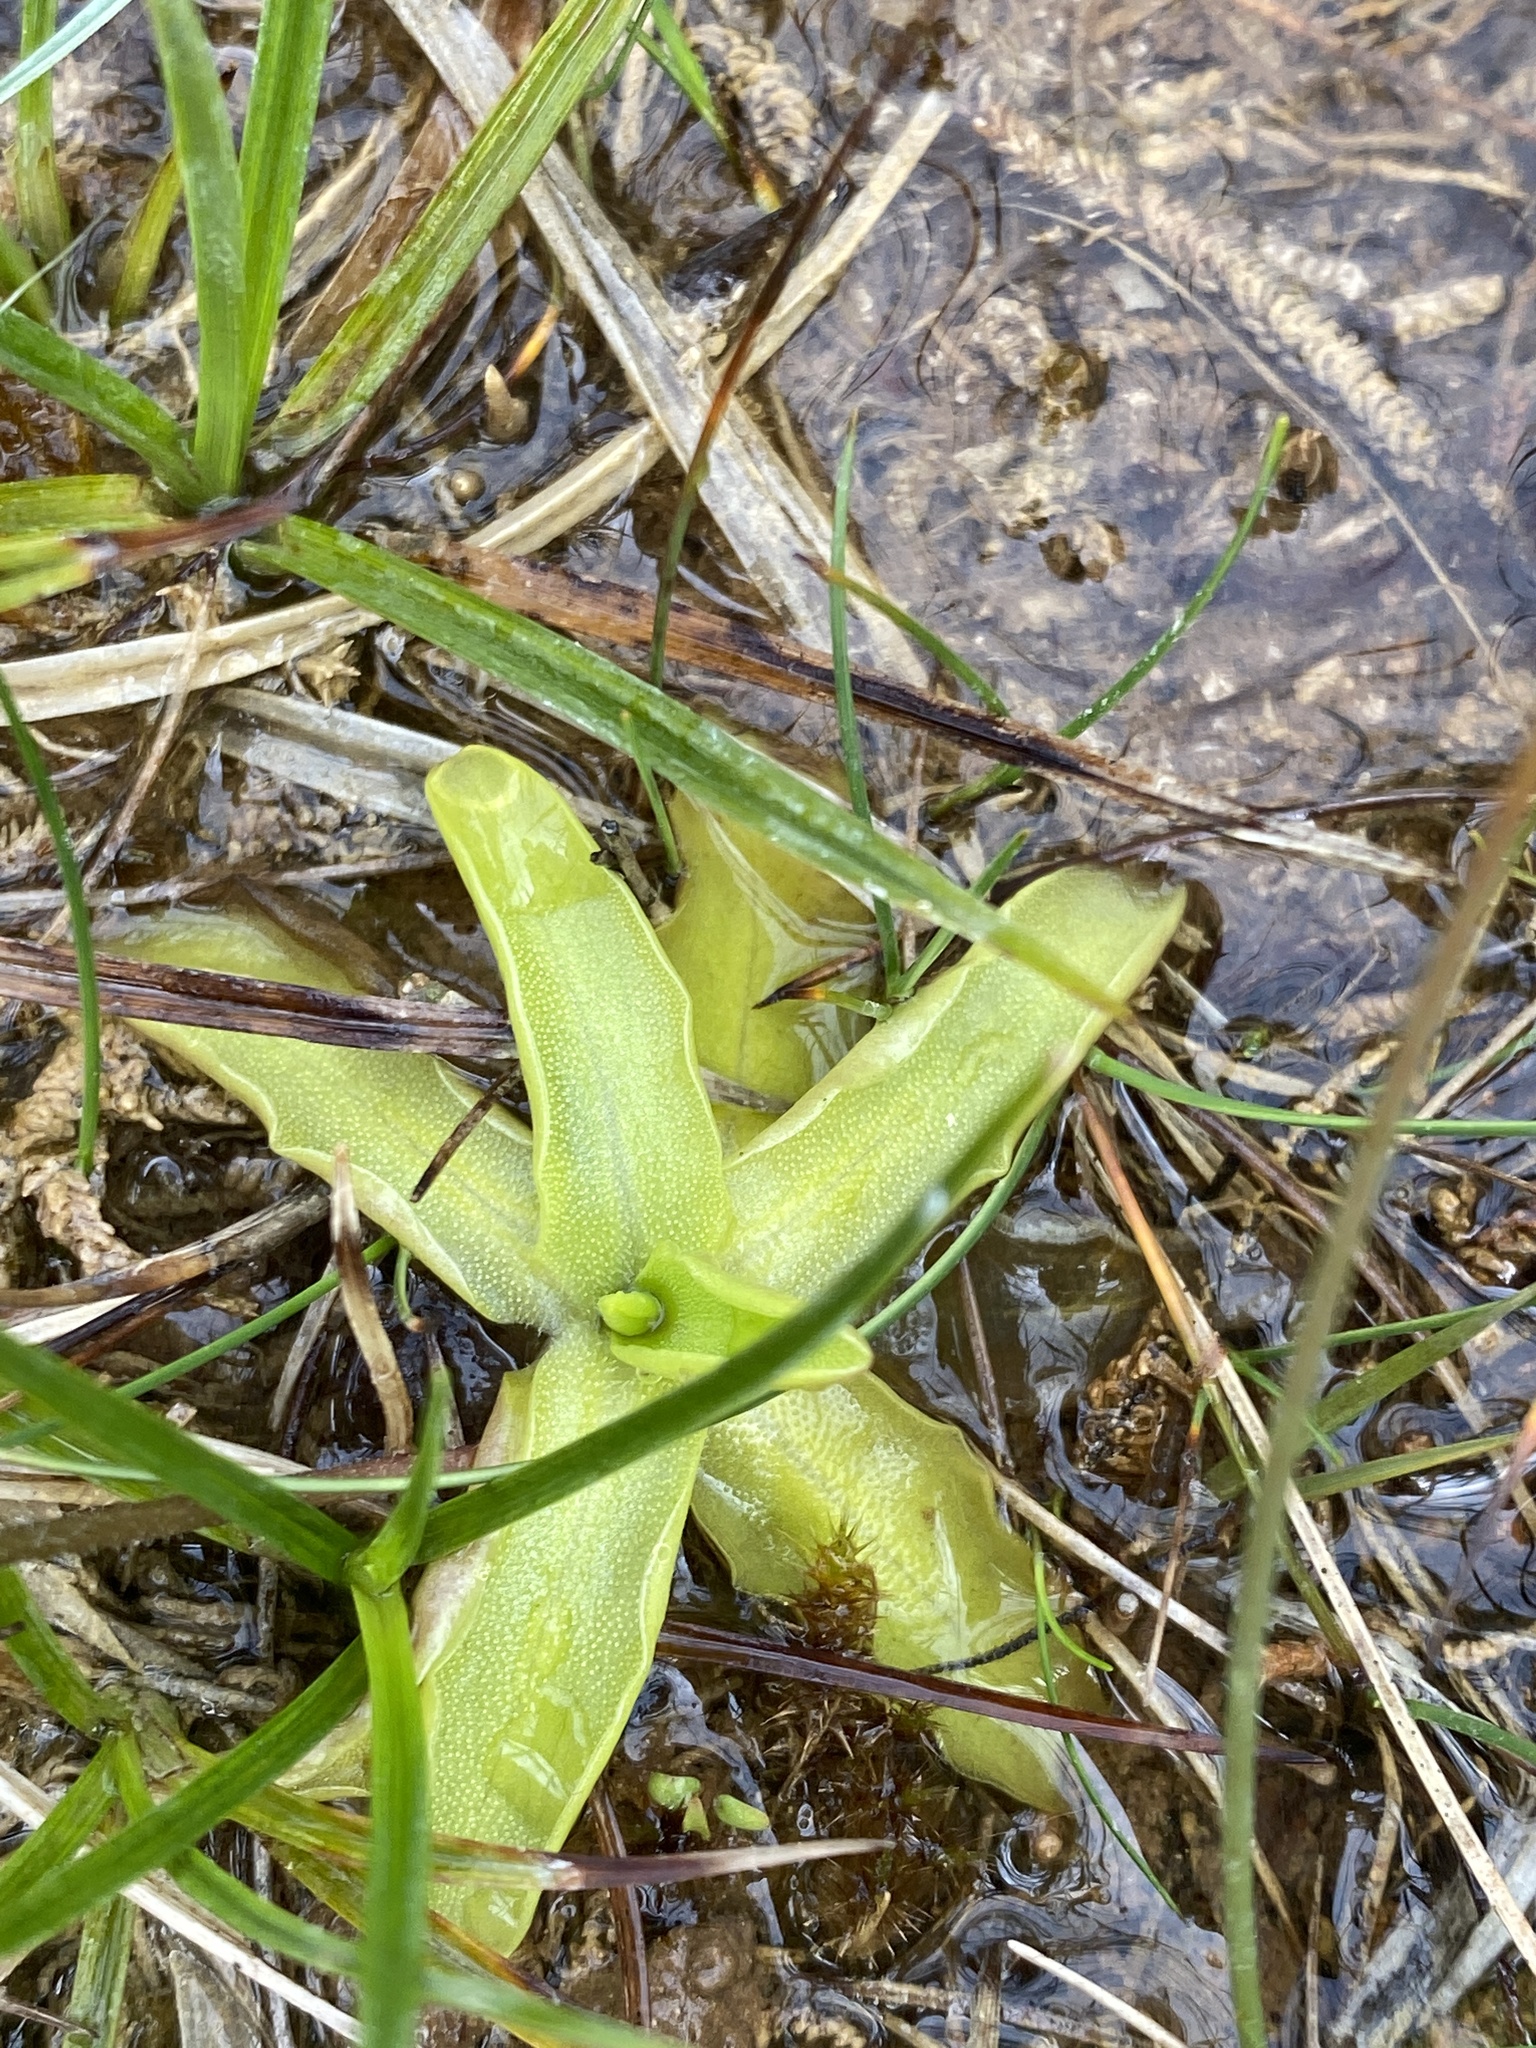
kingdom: Plantae
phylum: Tracheophyta
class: Magnoliopsida
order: Lamiales
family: Lentibulariaceae
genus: Pinguicula
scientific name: Pinguicula vulgaris
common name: Common butterwort
